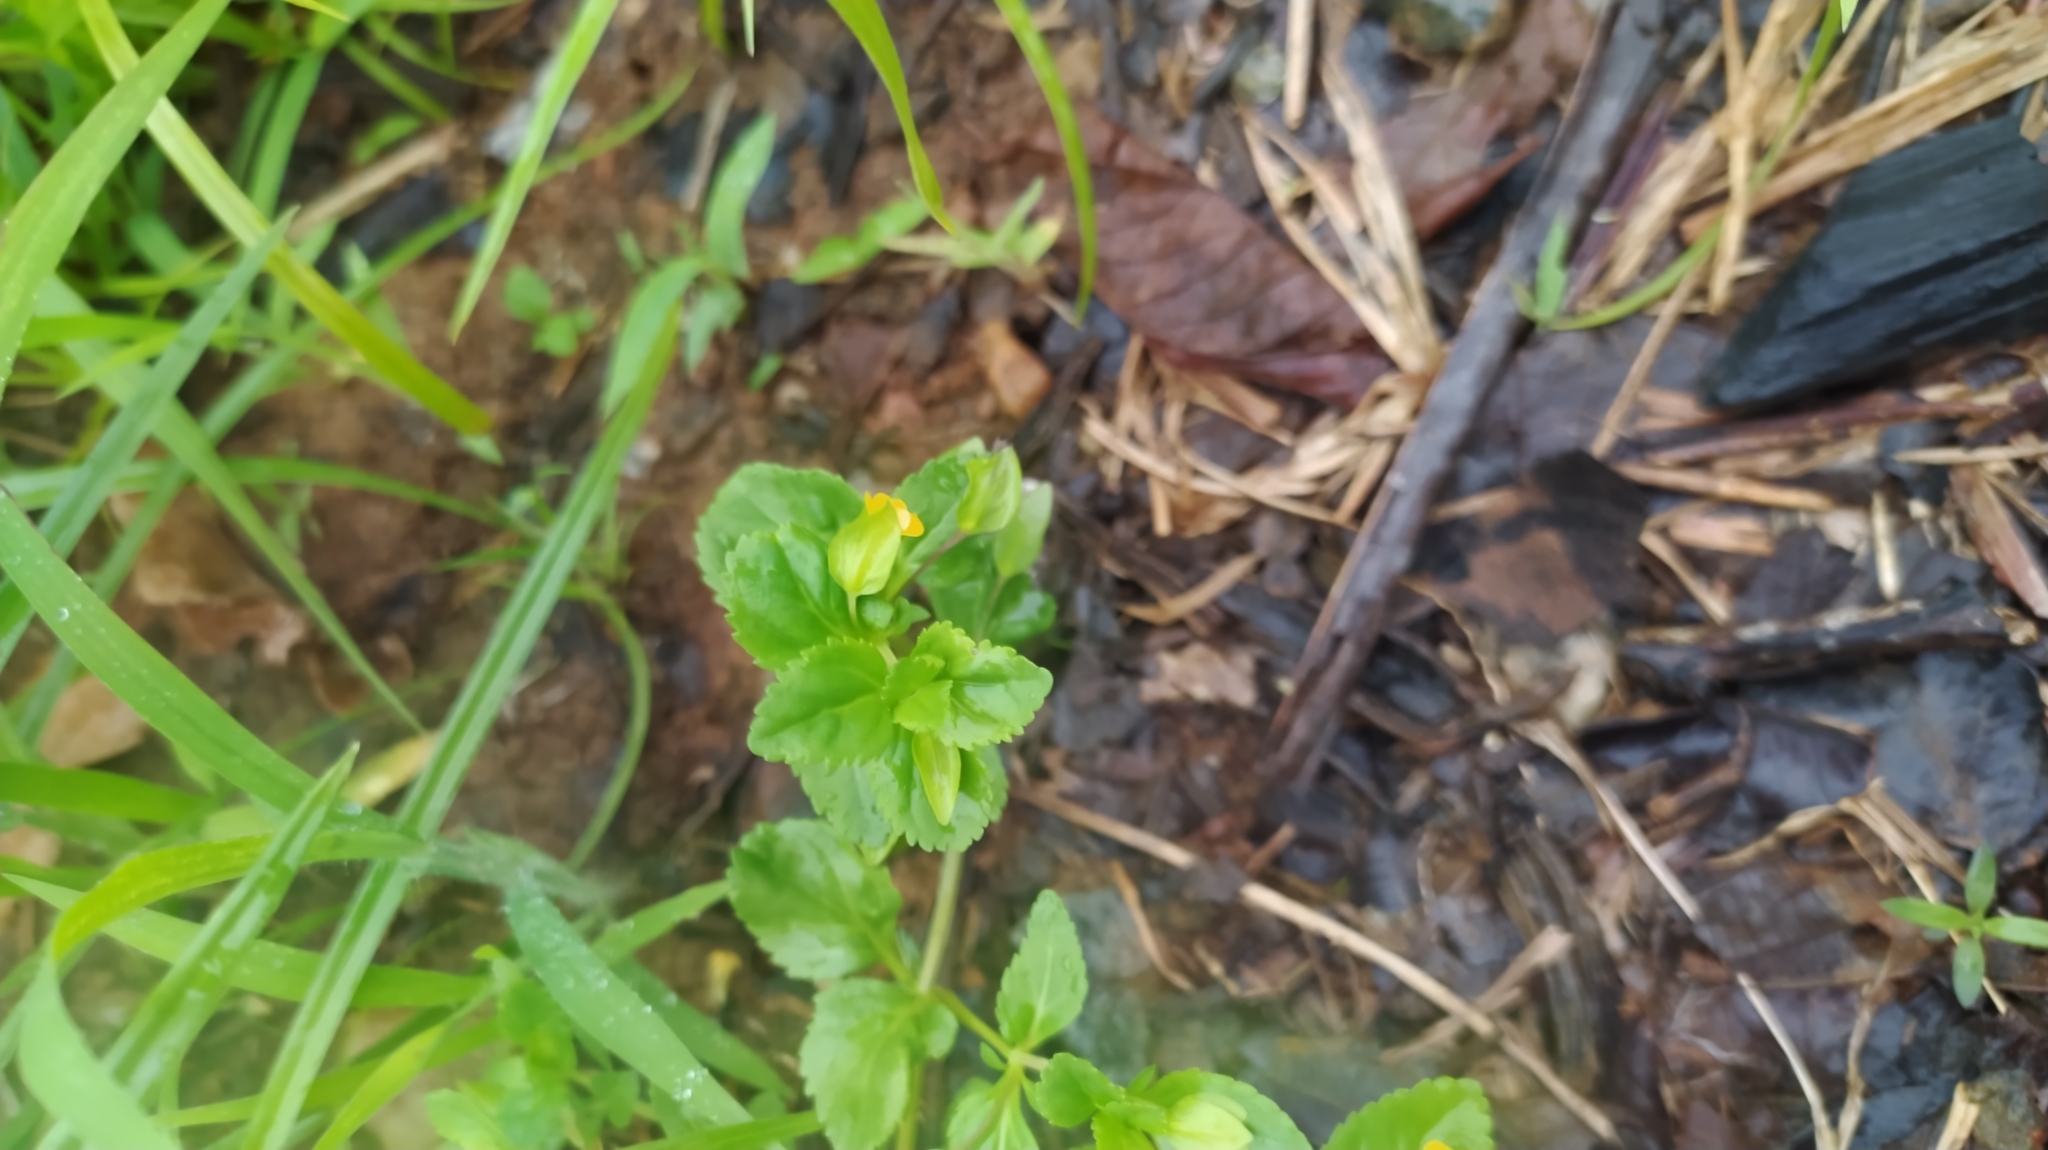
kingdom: Plantae
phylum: Tracheophyta
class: Magnoliopsida
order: Lamiales
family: Plantaginaceae
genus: Mecardonia
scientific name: Mecardonia procumbens
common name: Baby jump-up
